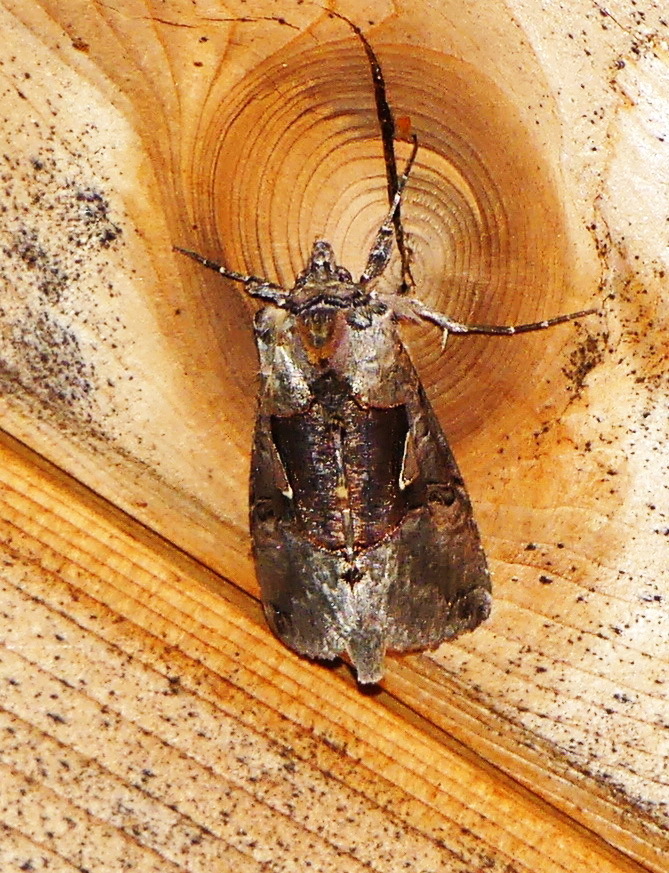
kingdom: Animalia
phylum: Arthropoda
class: Insecta
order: Lepidoptera
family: Noctuidae
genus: Autographa
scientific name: Autographa ampla
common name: Large looper moth
